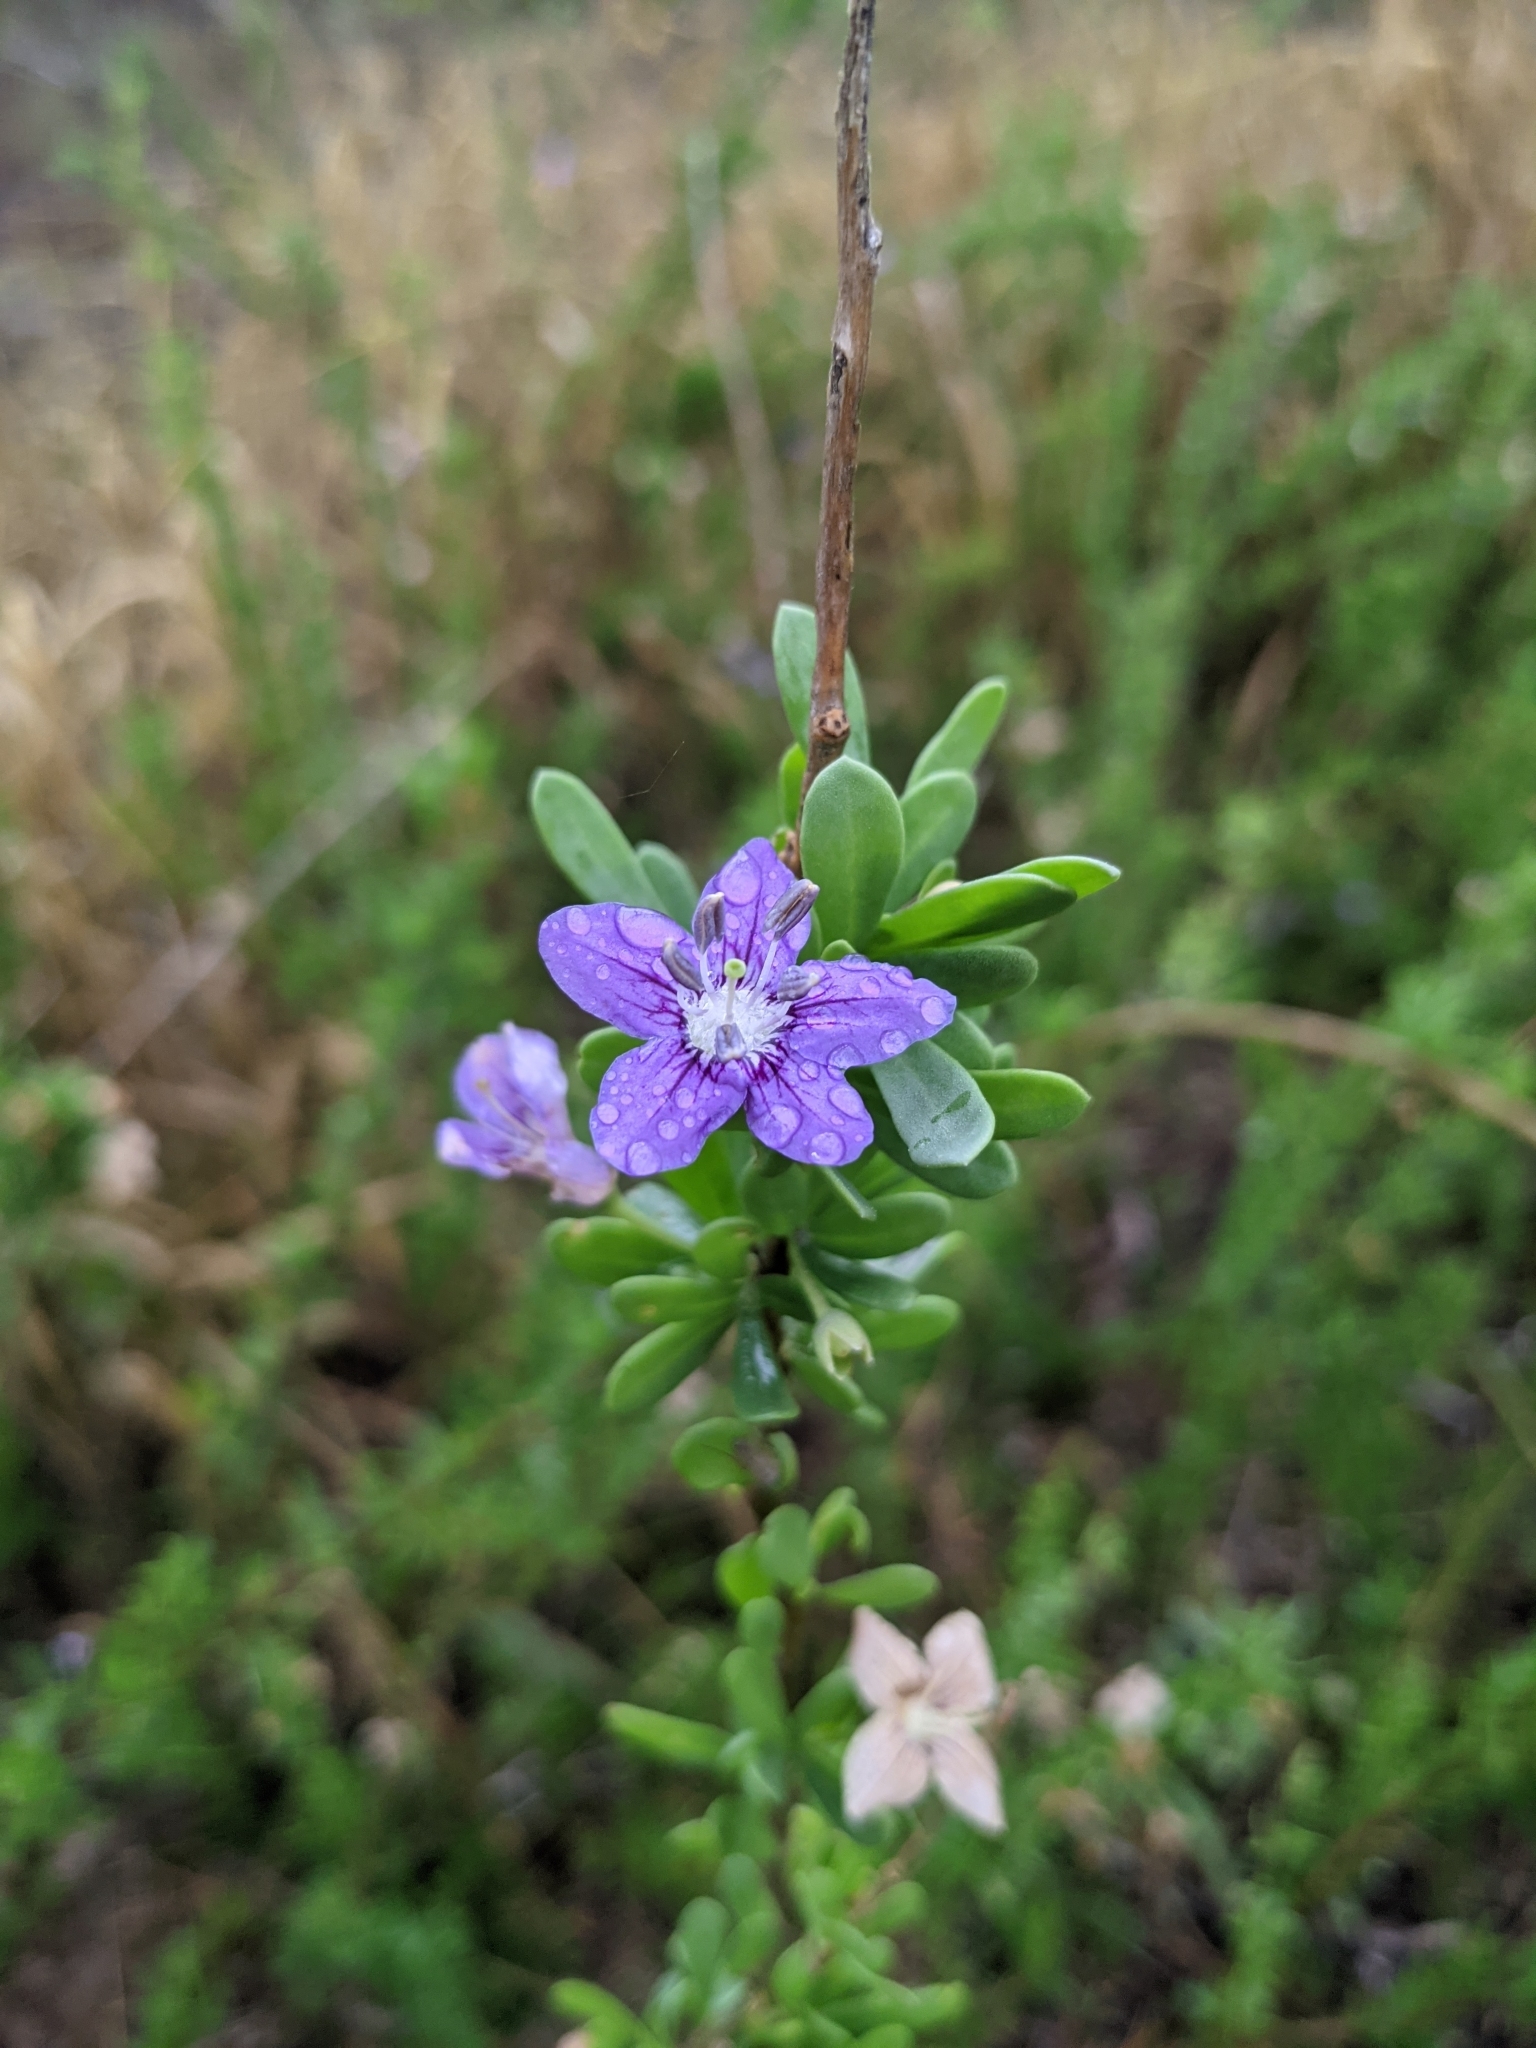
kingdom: Plantae
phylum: Tracheophyta
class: Magnoliopsida
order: Solanales
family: Solanaceae
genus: Lycium
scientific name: Lycium carolinianum
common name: Christmasberry
